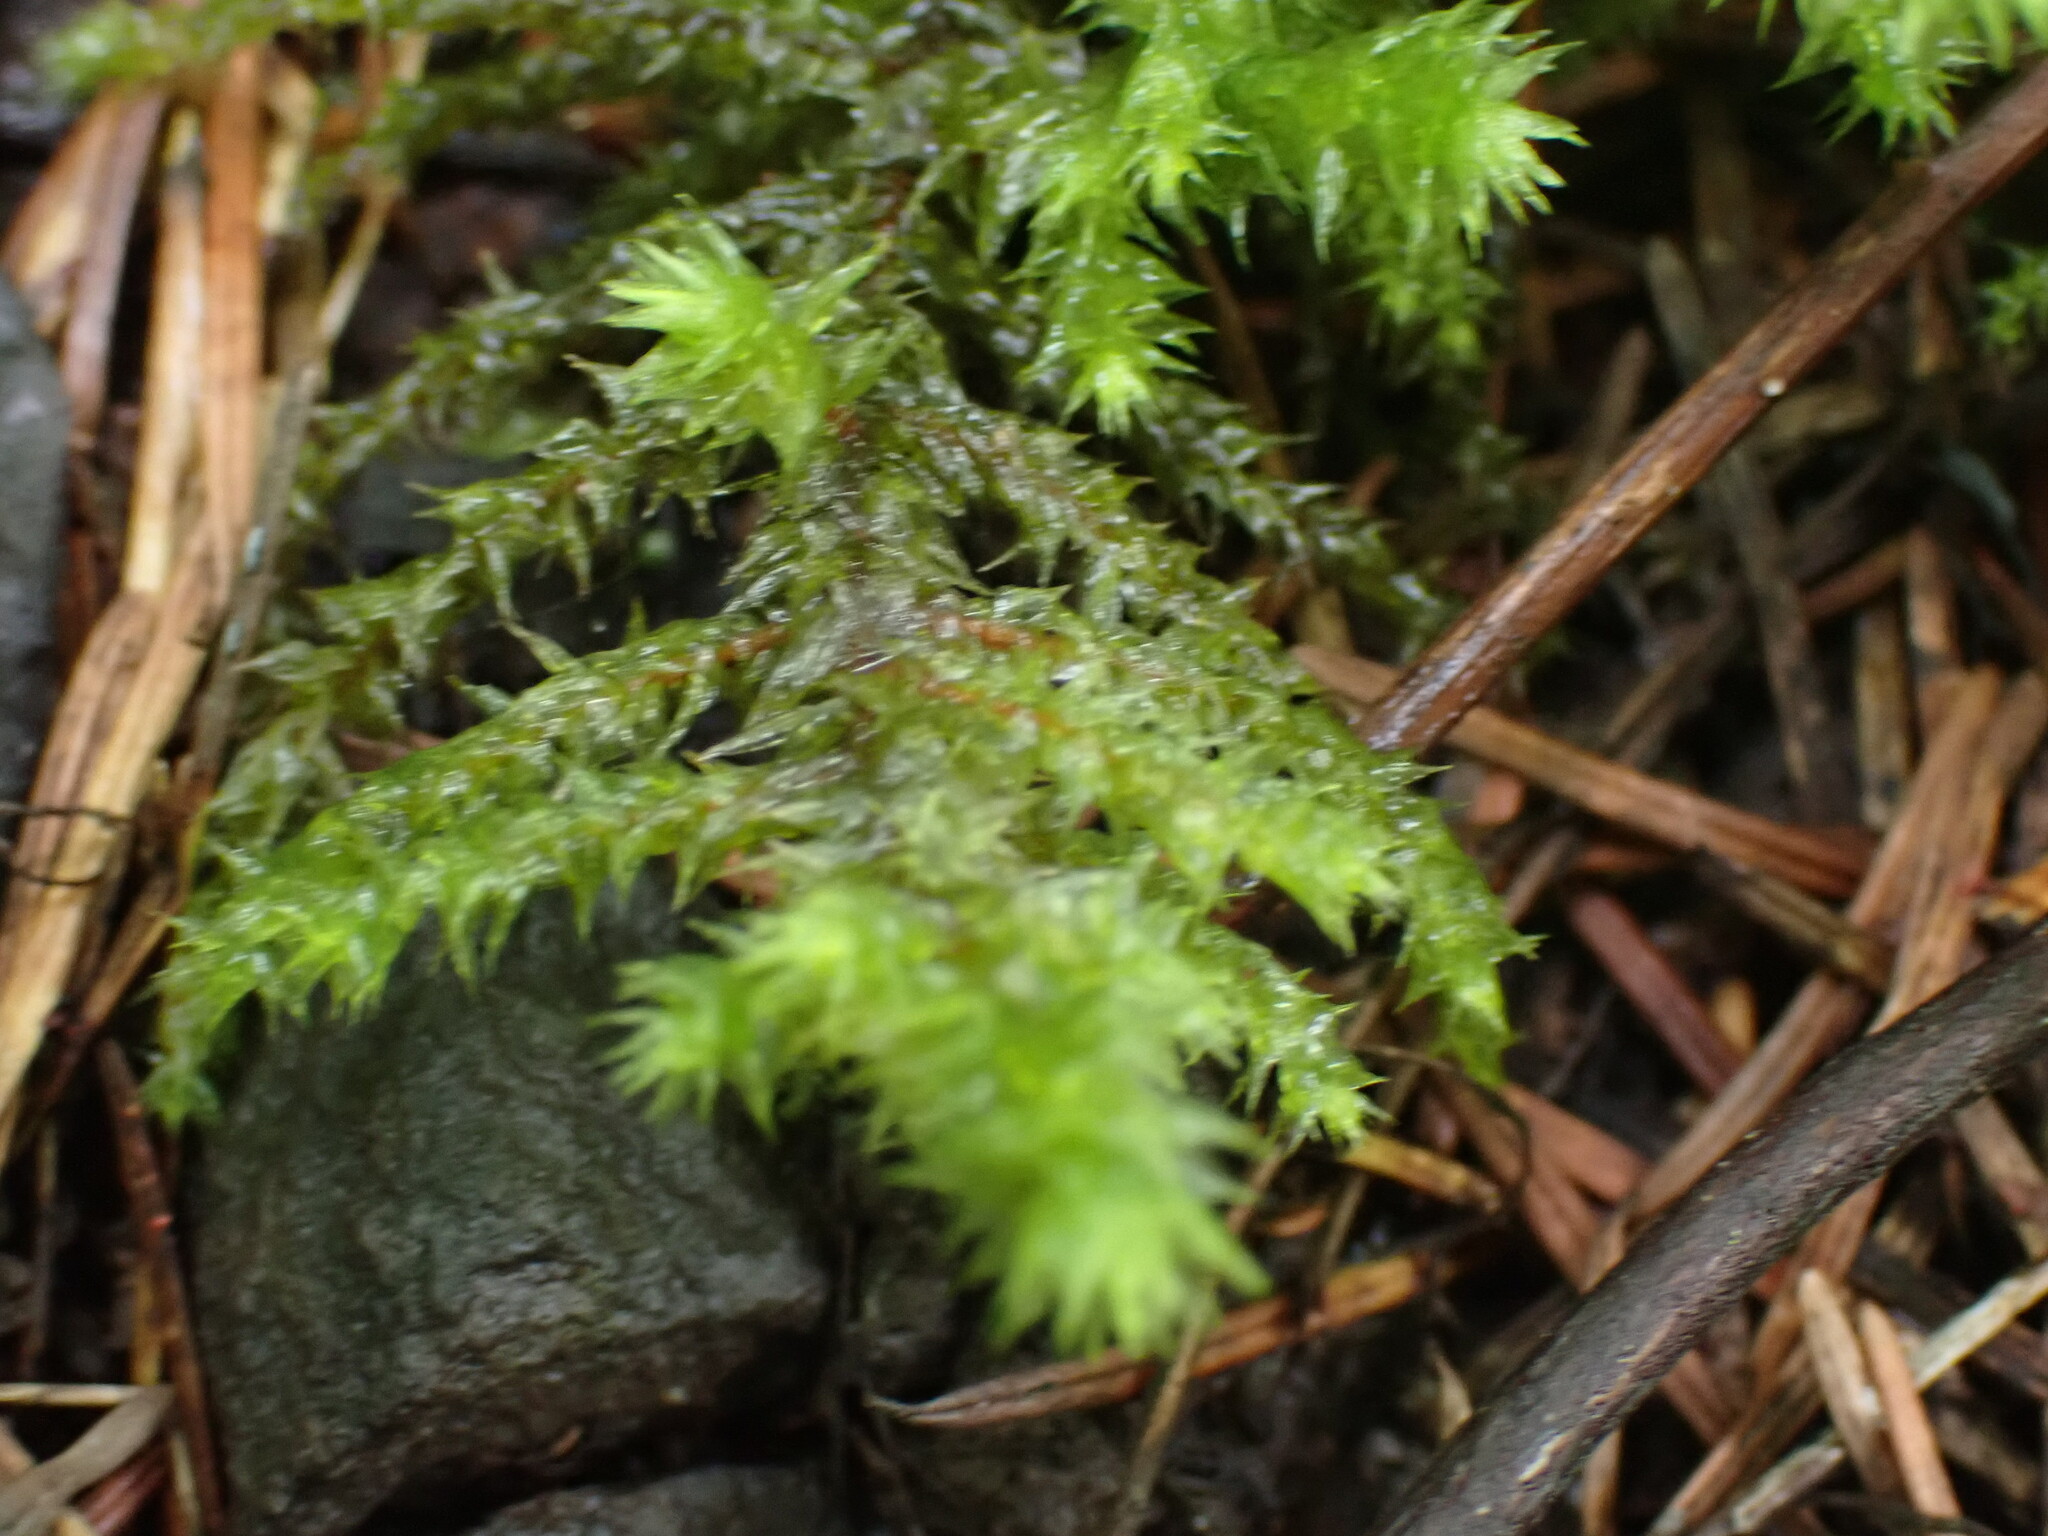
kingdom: Plantae
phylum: Bryophyta
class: Bryopsida
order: Hypnales
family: Hylocomiaceae
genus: Hylocomiadelphus
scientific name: Hylocomiadelphus triquetrus
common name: Rough goose neck moss
